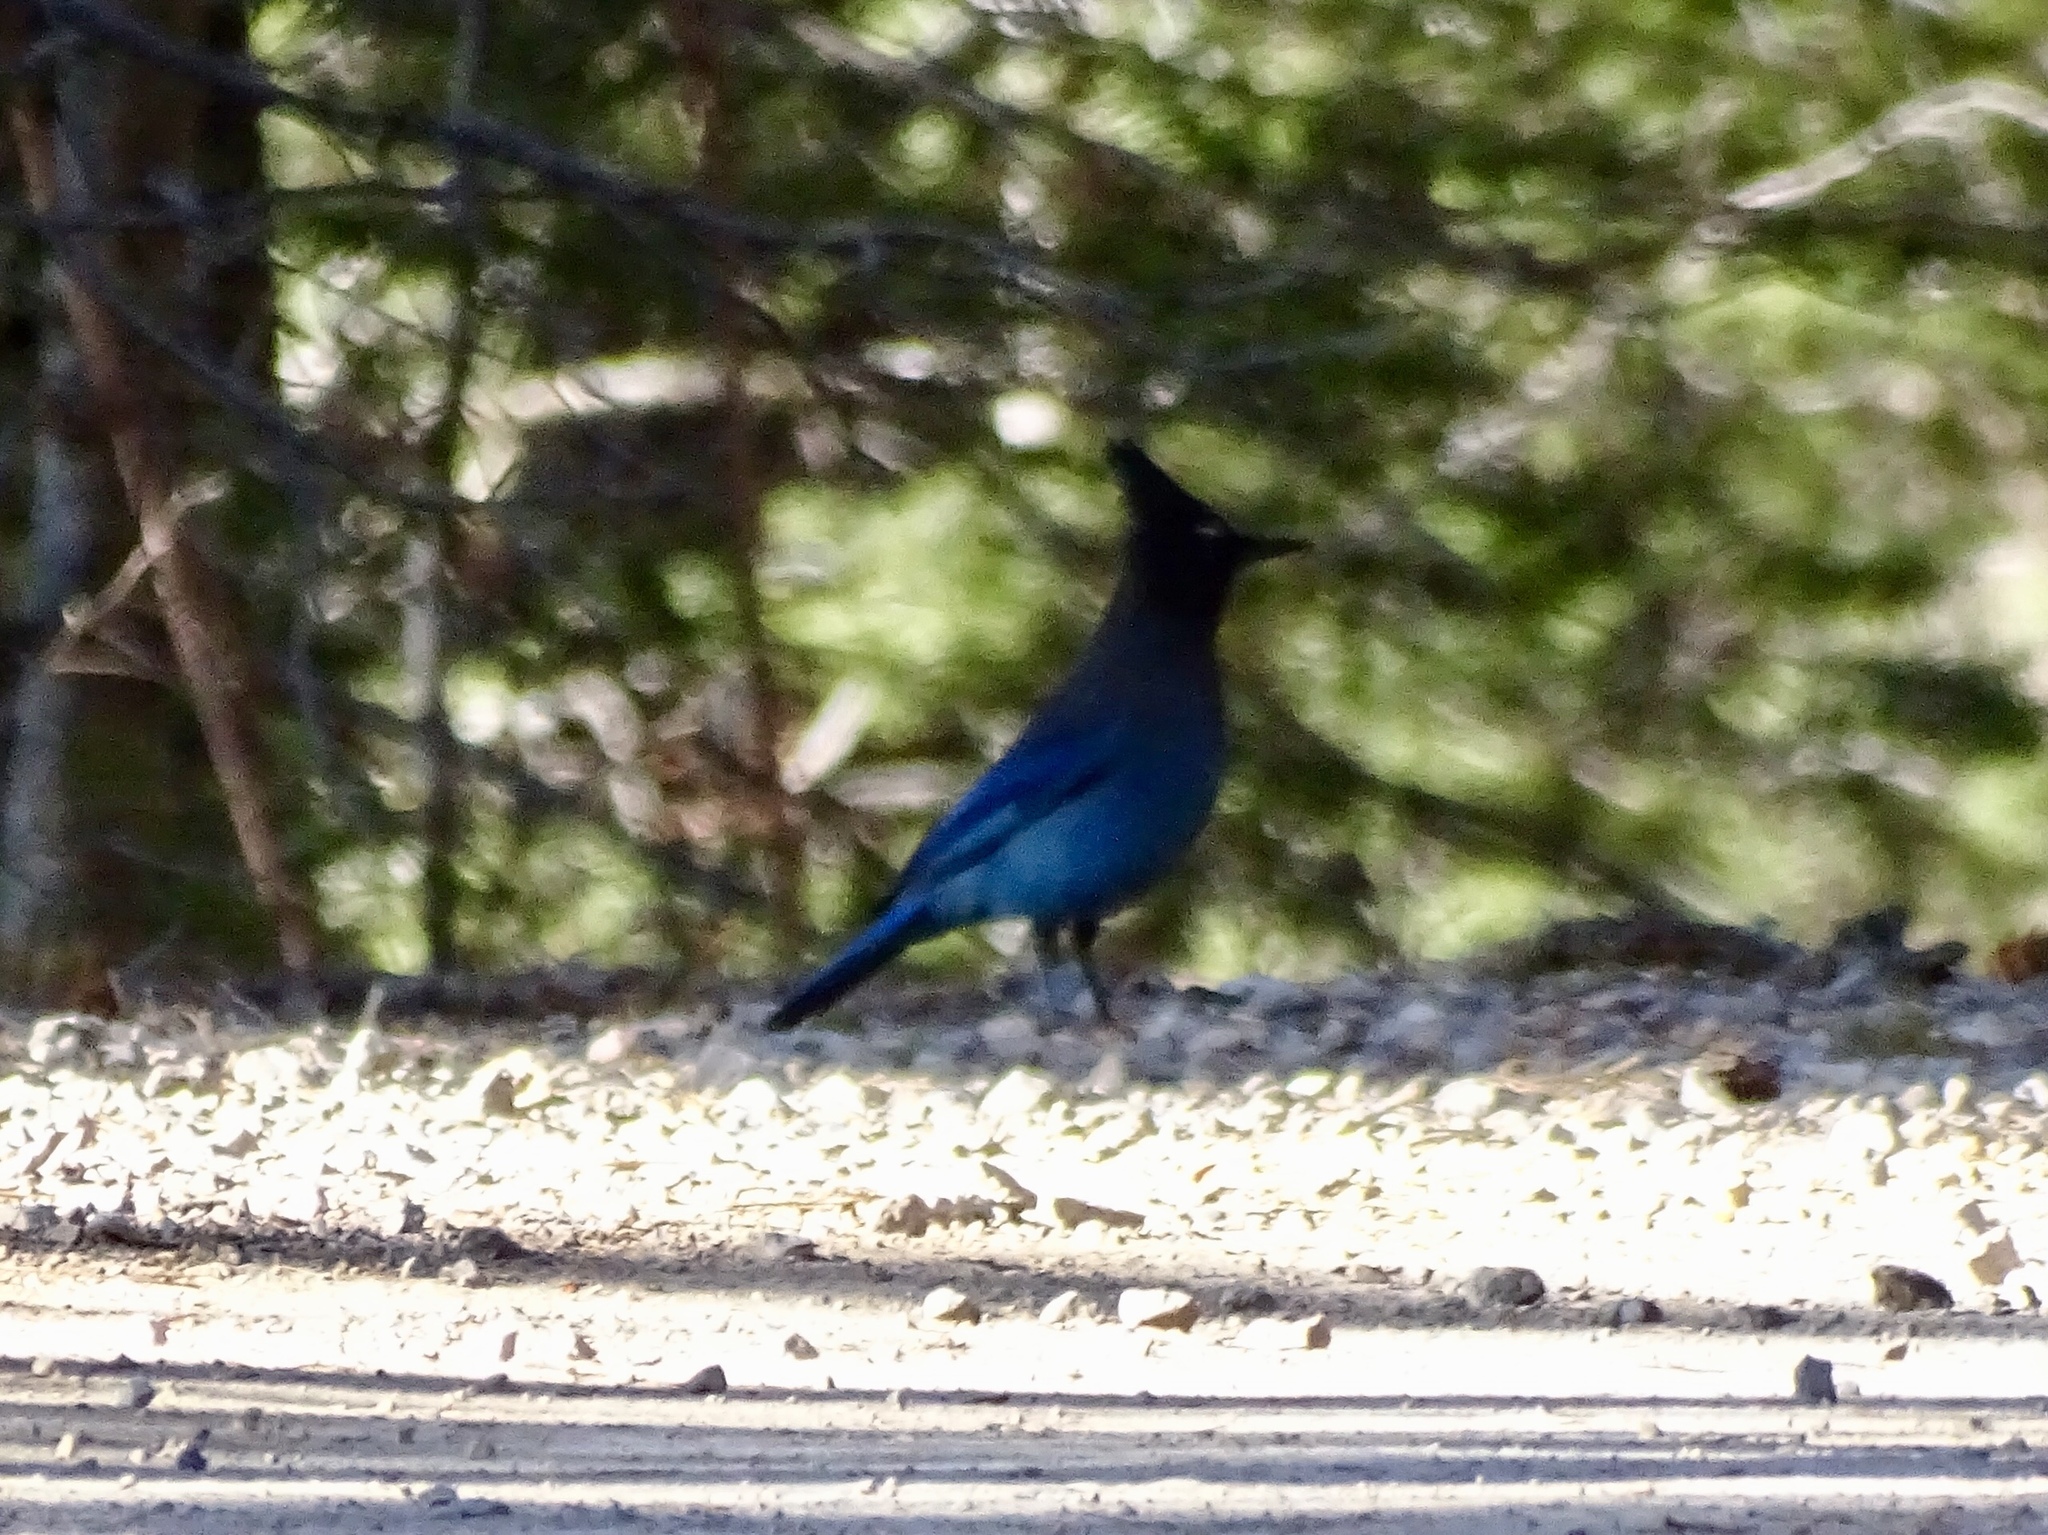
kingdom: Animalia
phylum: Chordata
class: Aves
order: Passeriformes
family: Corvidae
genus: Cyanocitta
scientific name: Cyanocitta stelleri
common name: Steller's jay
